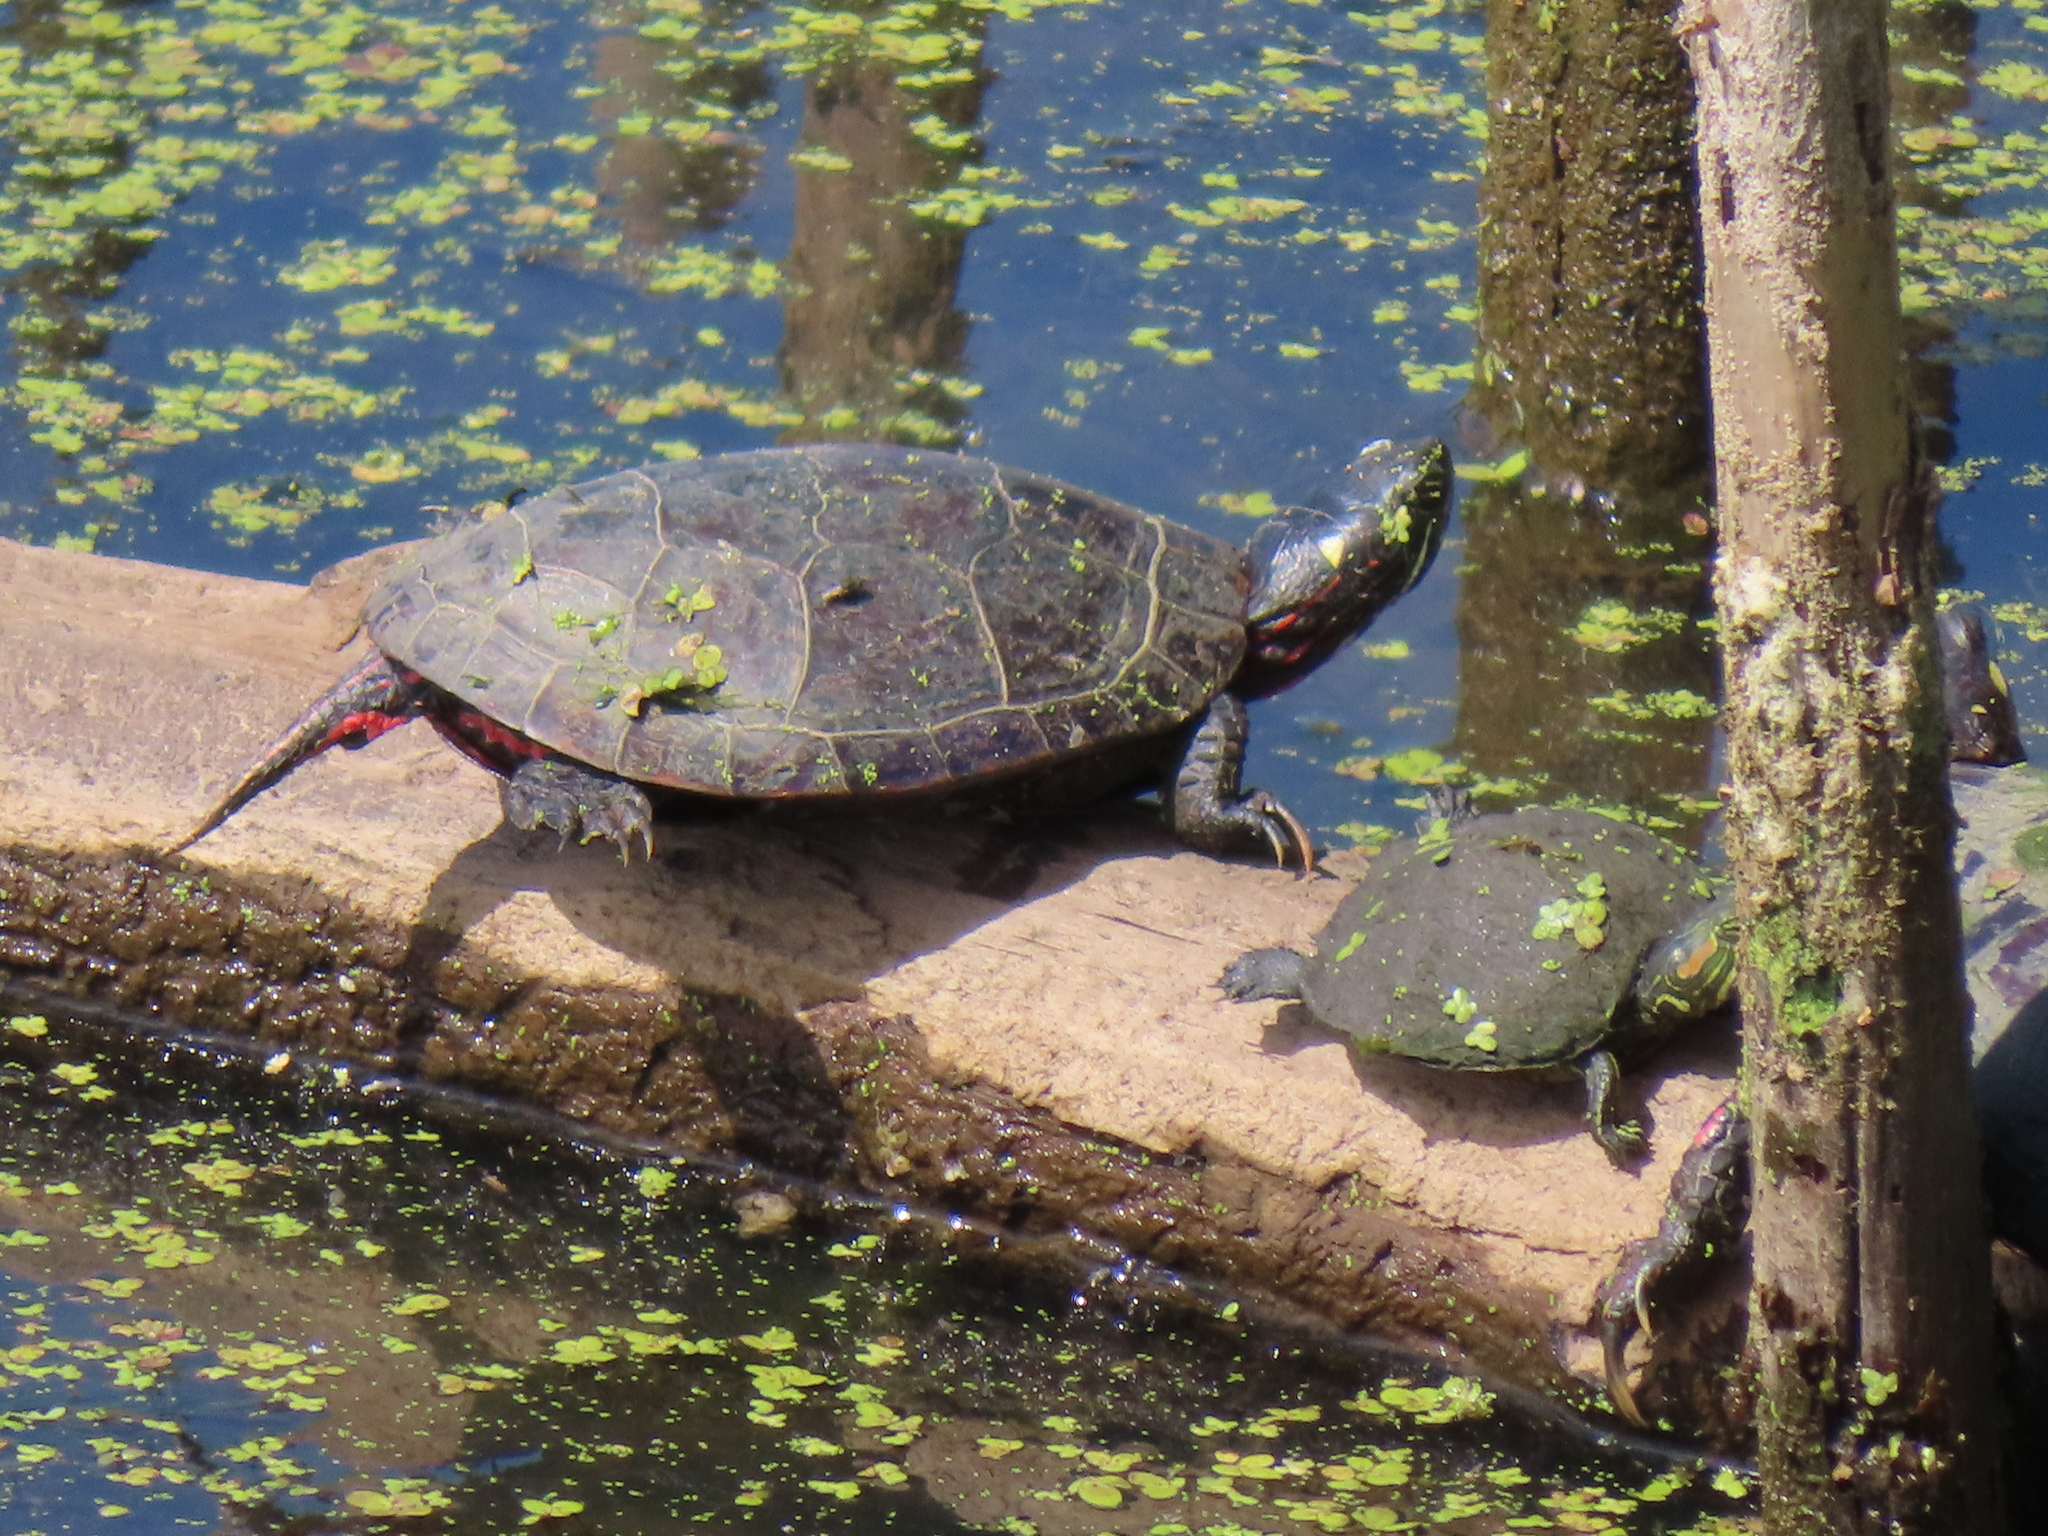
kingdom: Animalia
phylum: Chordata
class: Testudines
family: Emydidae
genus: Chrysemys
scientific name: Chrysemys picta
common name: Painted turtle
